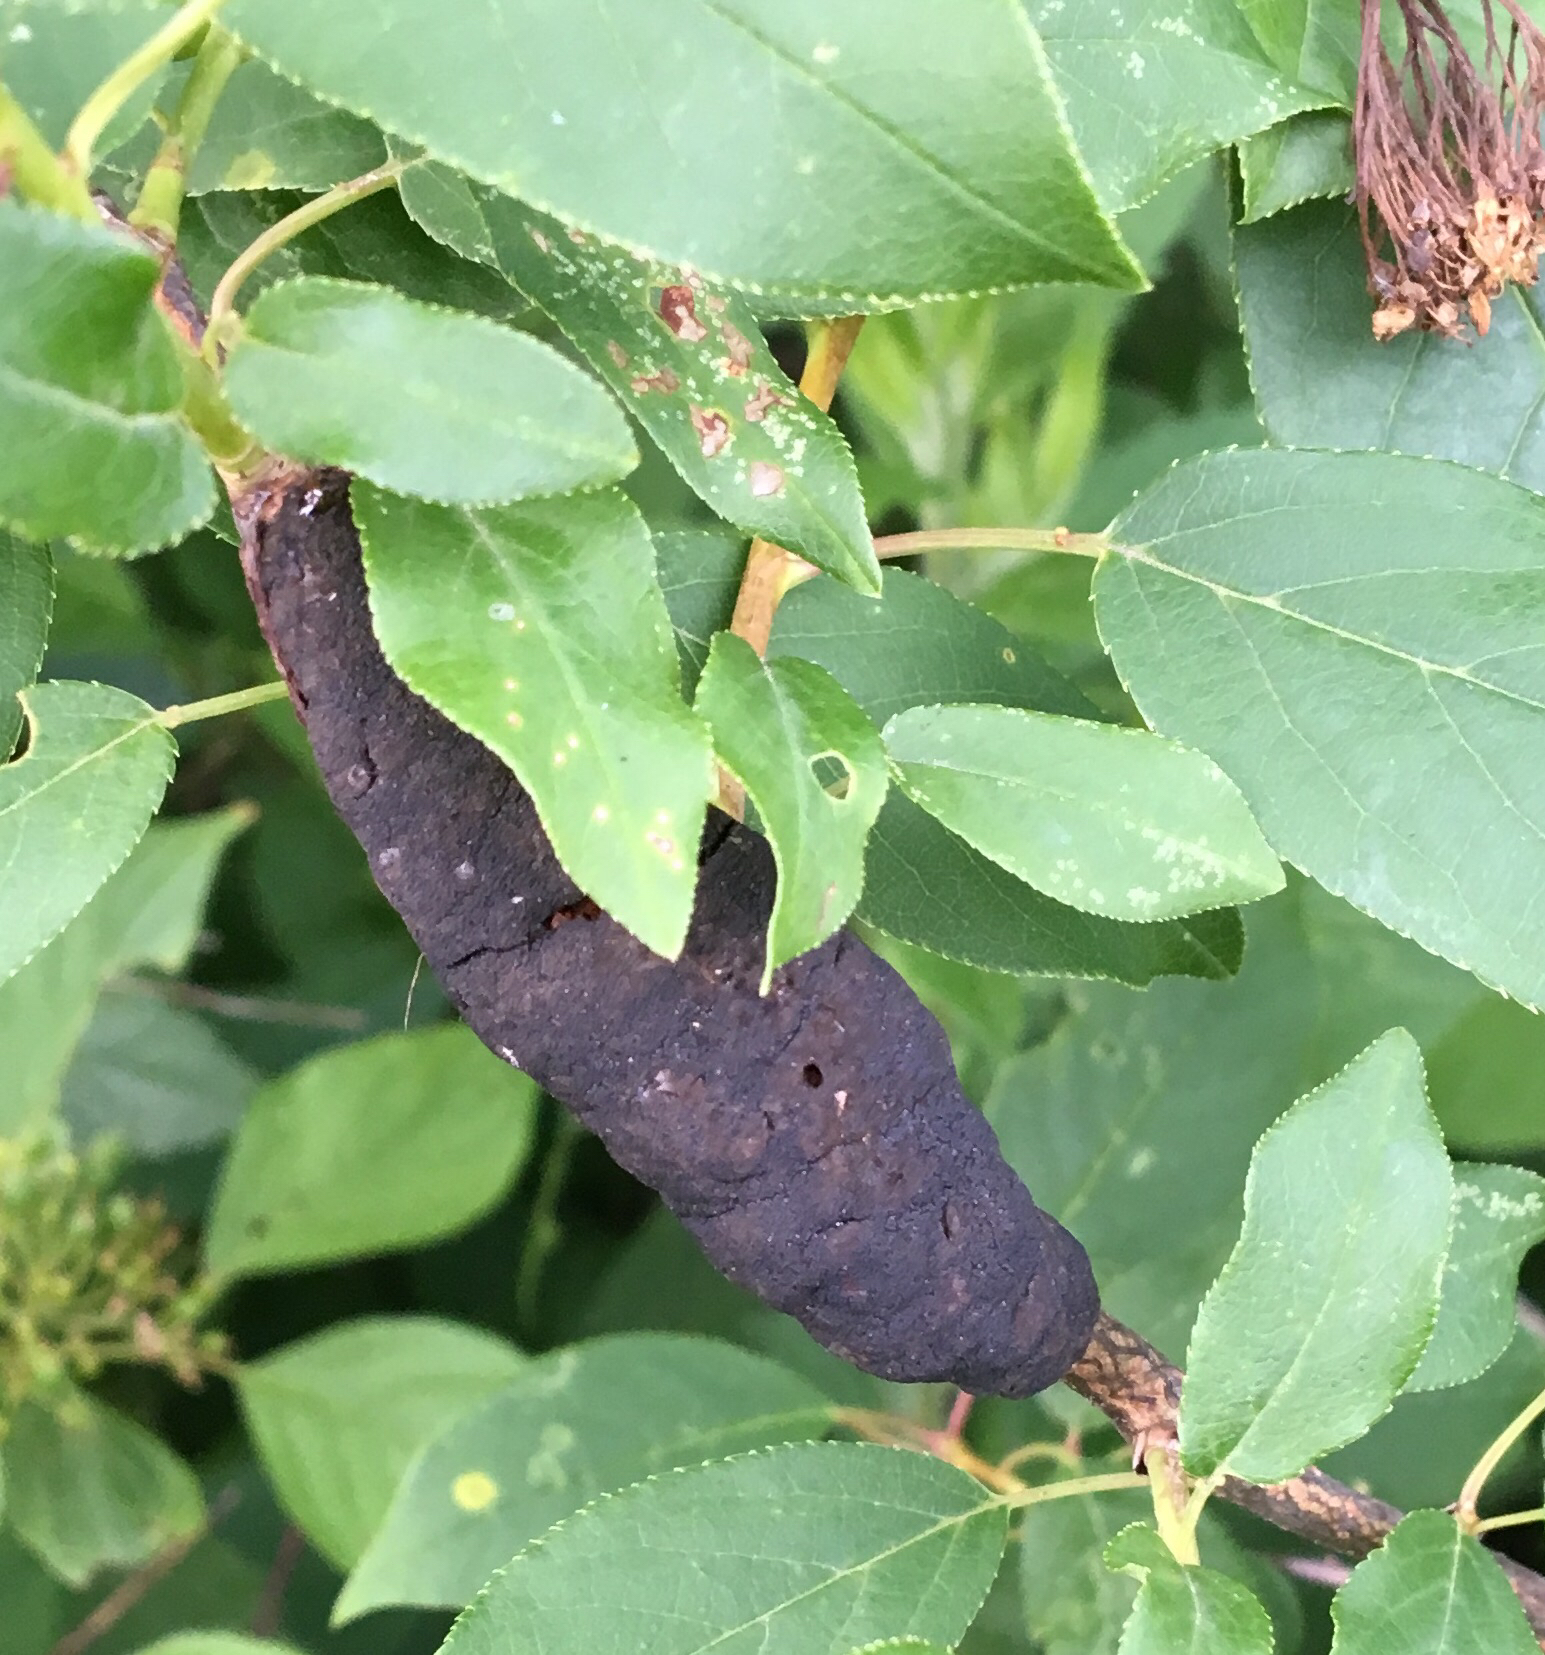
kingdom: Fungi
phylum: Ascomycota
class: Dothideomycetes
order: Venturiales
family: Venturiaceae
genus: Apiosporina
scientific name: Apiosporina morbosa
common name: Black knot
